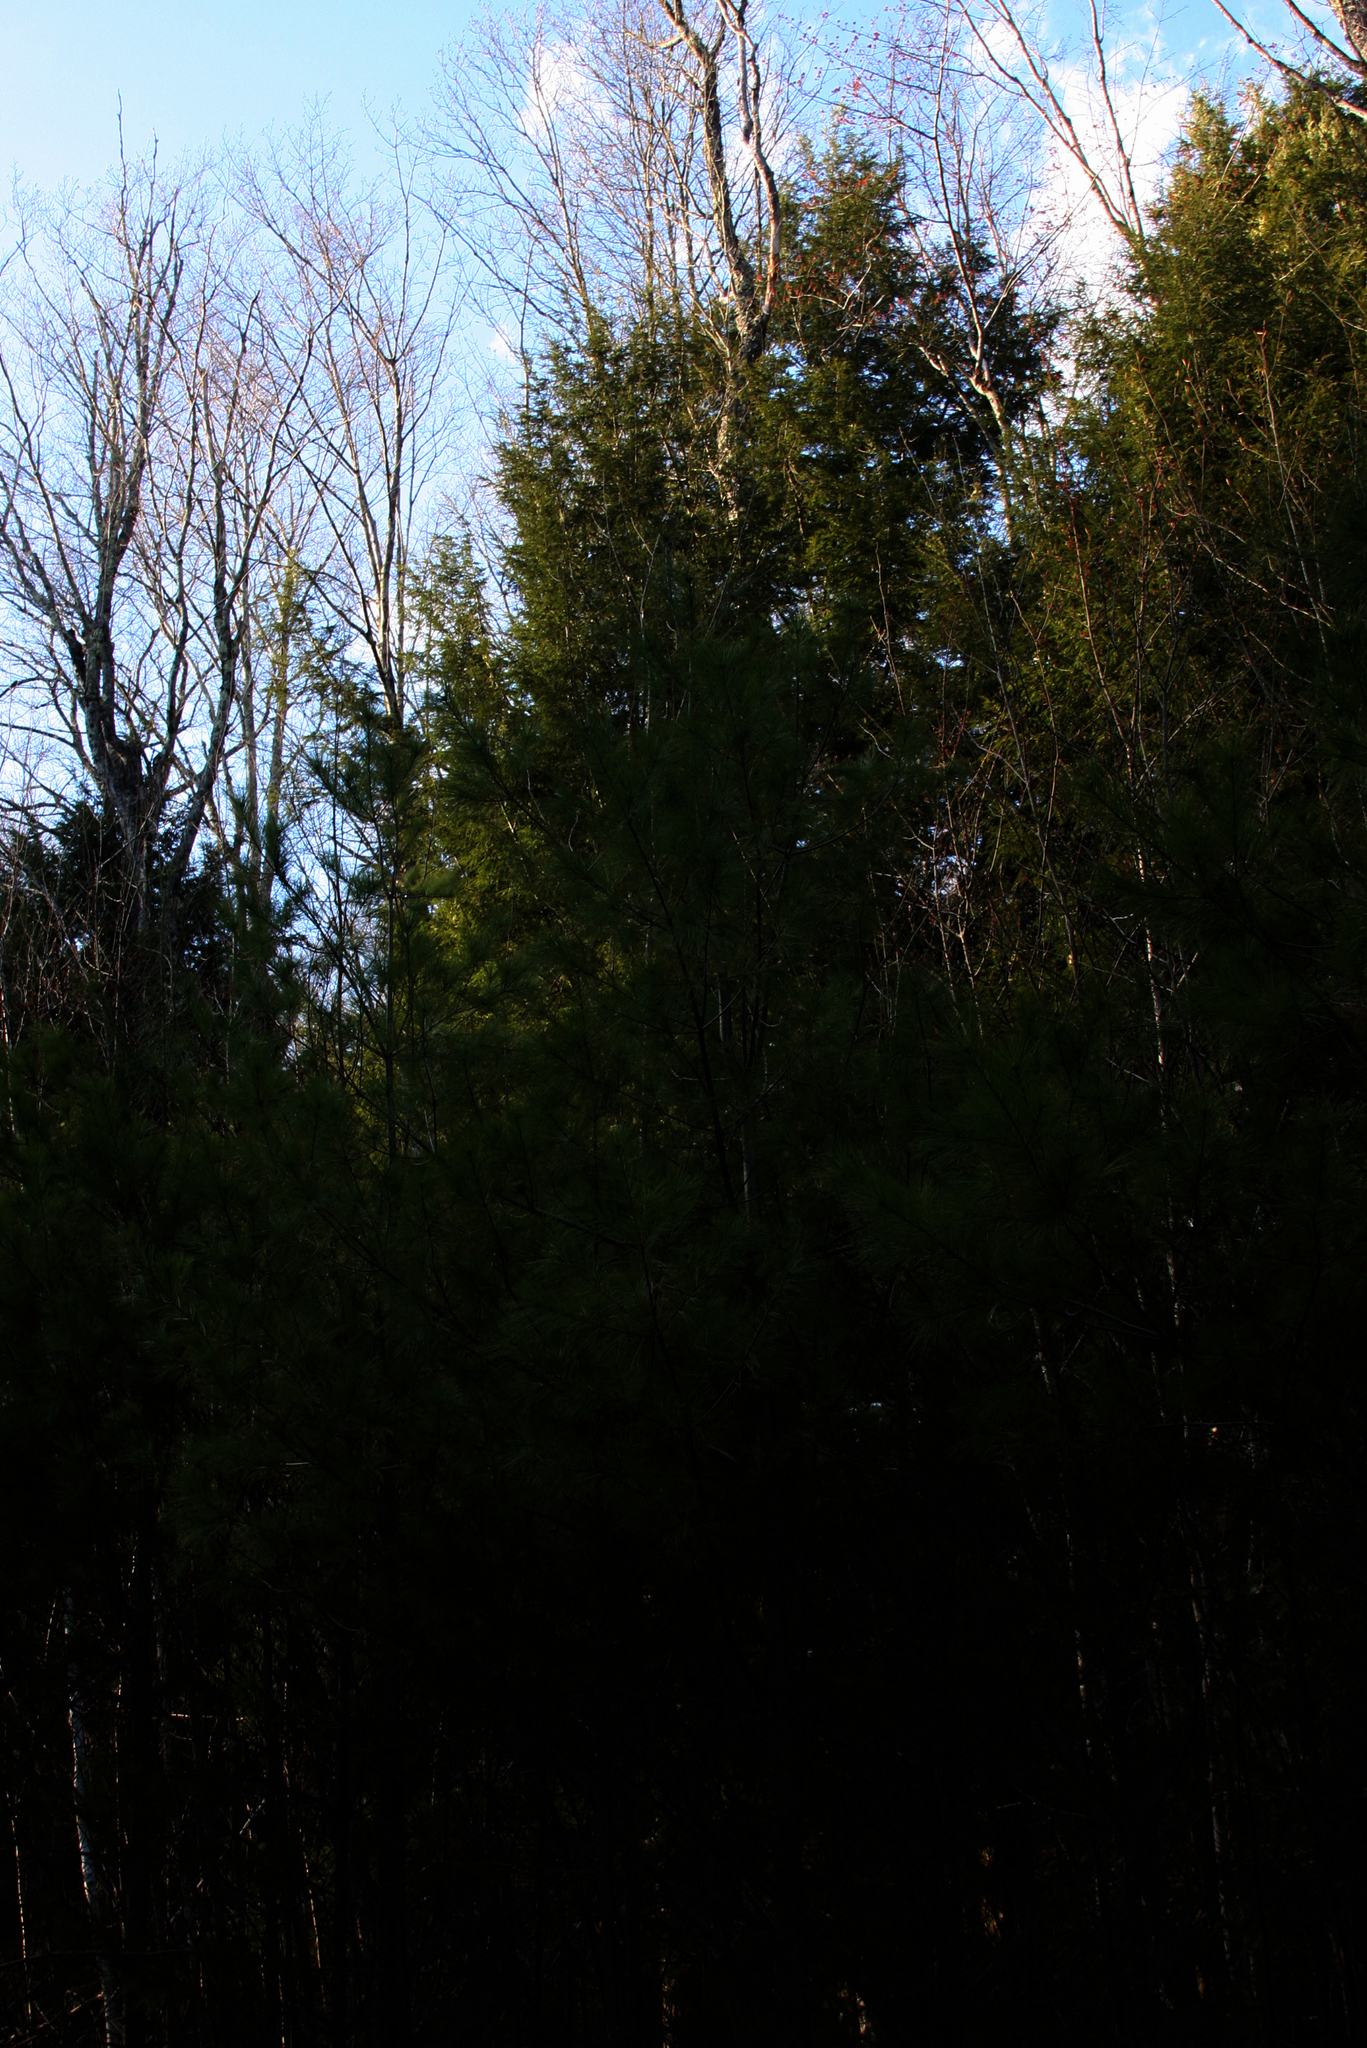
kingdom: Plantae
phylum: Tracheophyta
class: Pinopsida
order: Pinales
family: Pinaceae
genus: Pinus
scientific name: Pinus strobus
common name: Weymouth pine
